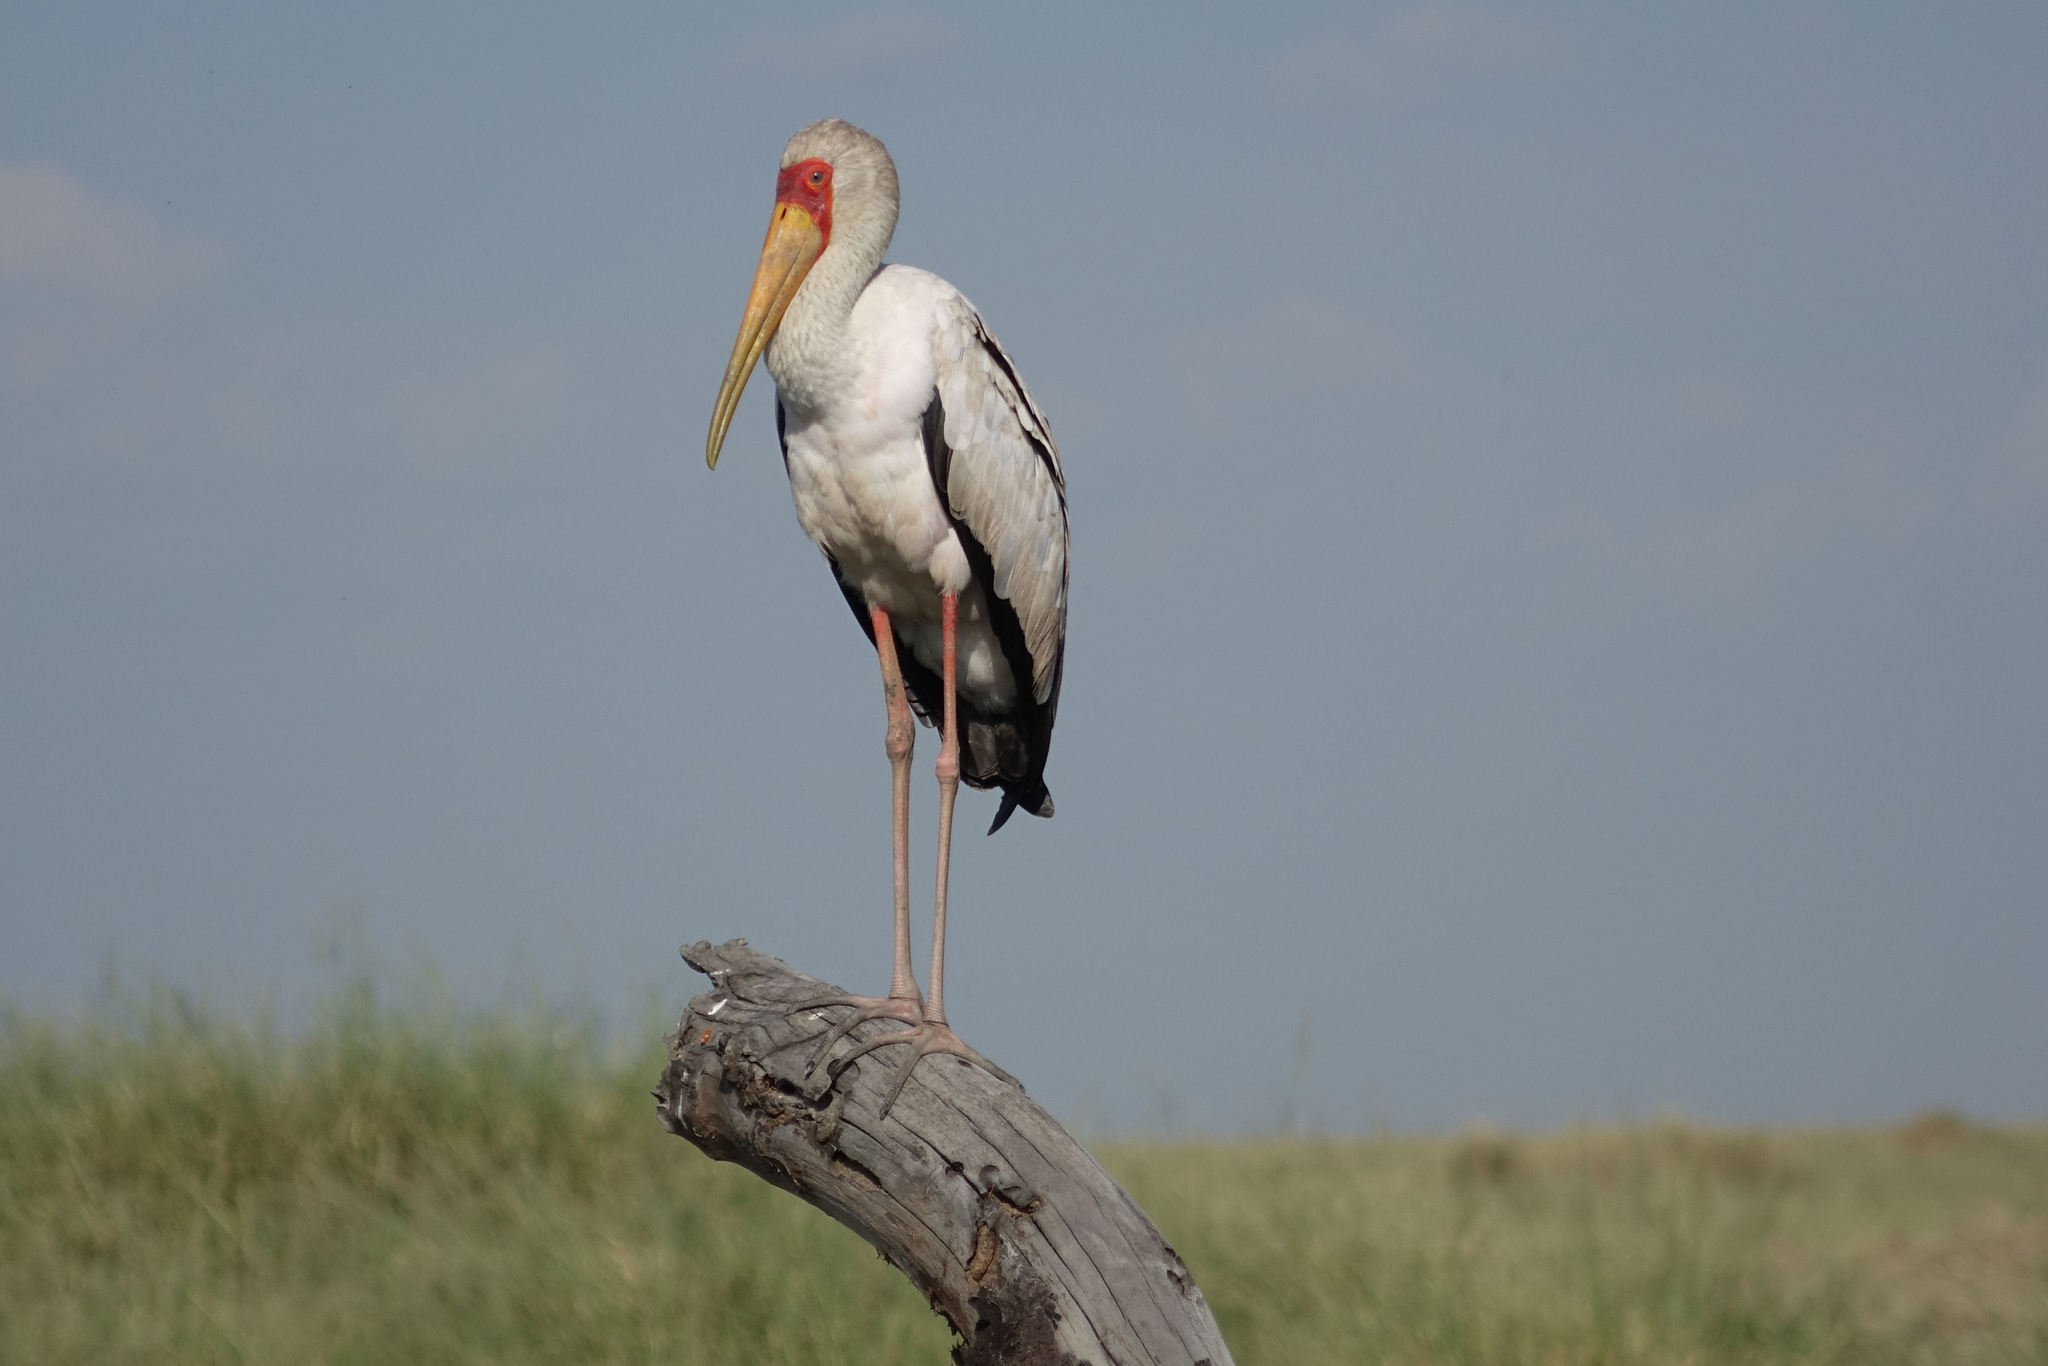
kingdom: Animalia
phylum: Chordata
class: Aves
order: Ciconiiformes
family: Ciconiidae
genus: Mycteria
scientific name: Mycteria ibis
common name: Yellow-billed stork
